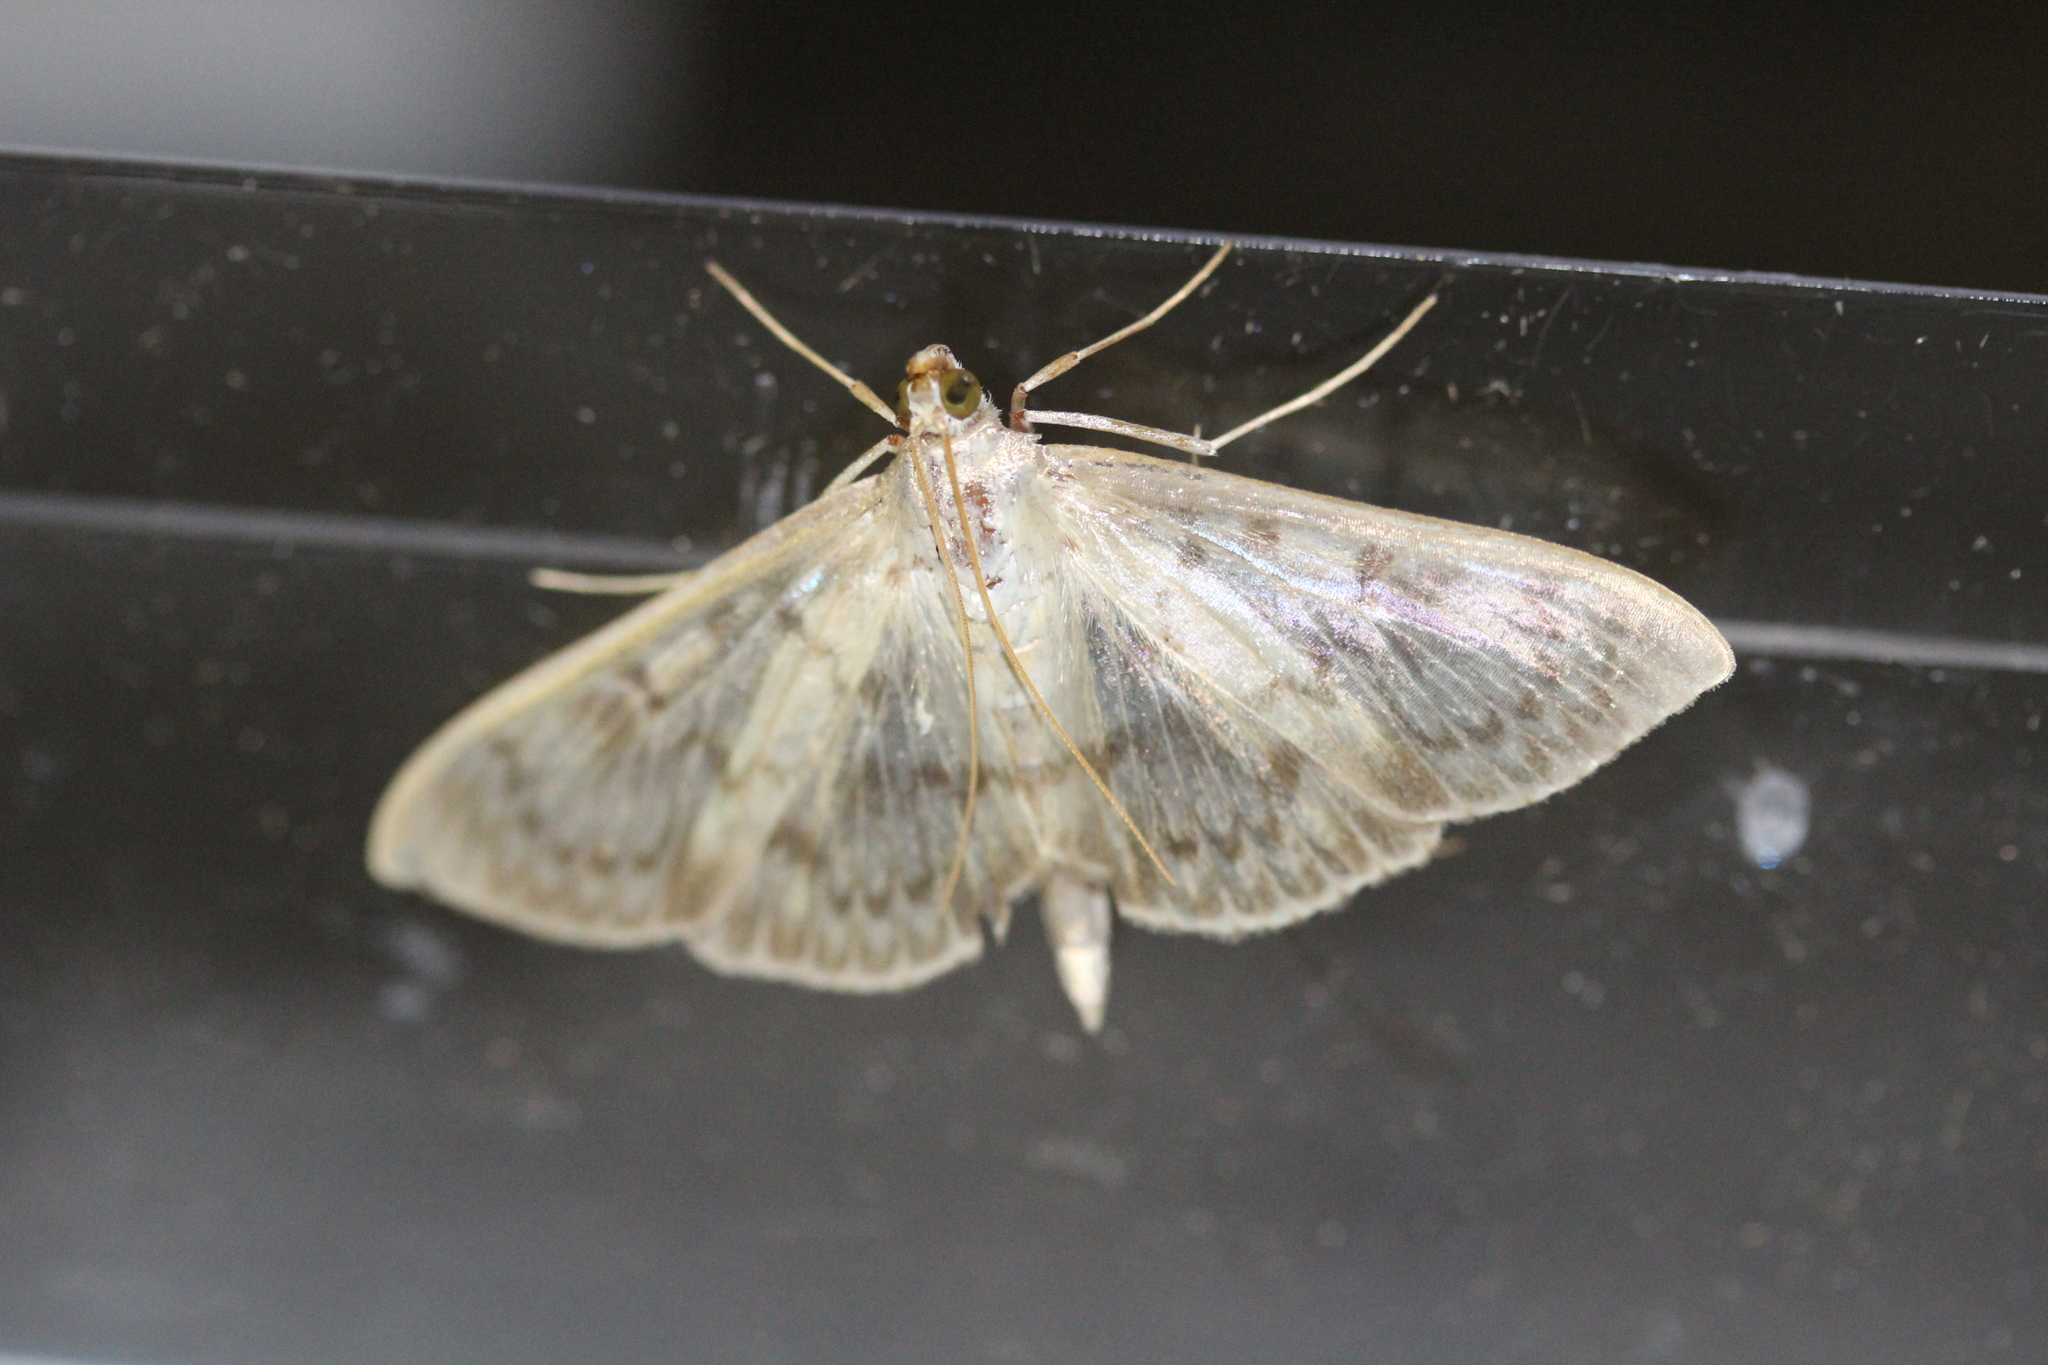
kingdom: Animalia
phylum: Arthropoda
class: Insecta
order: Lepidoptera
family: Crambidae
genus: Patania
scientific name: Patania ruralis
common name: Mother of pearl
